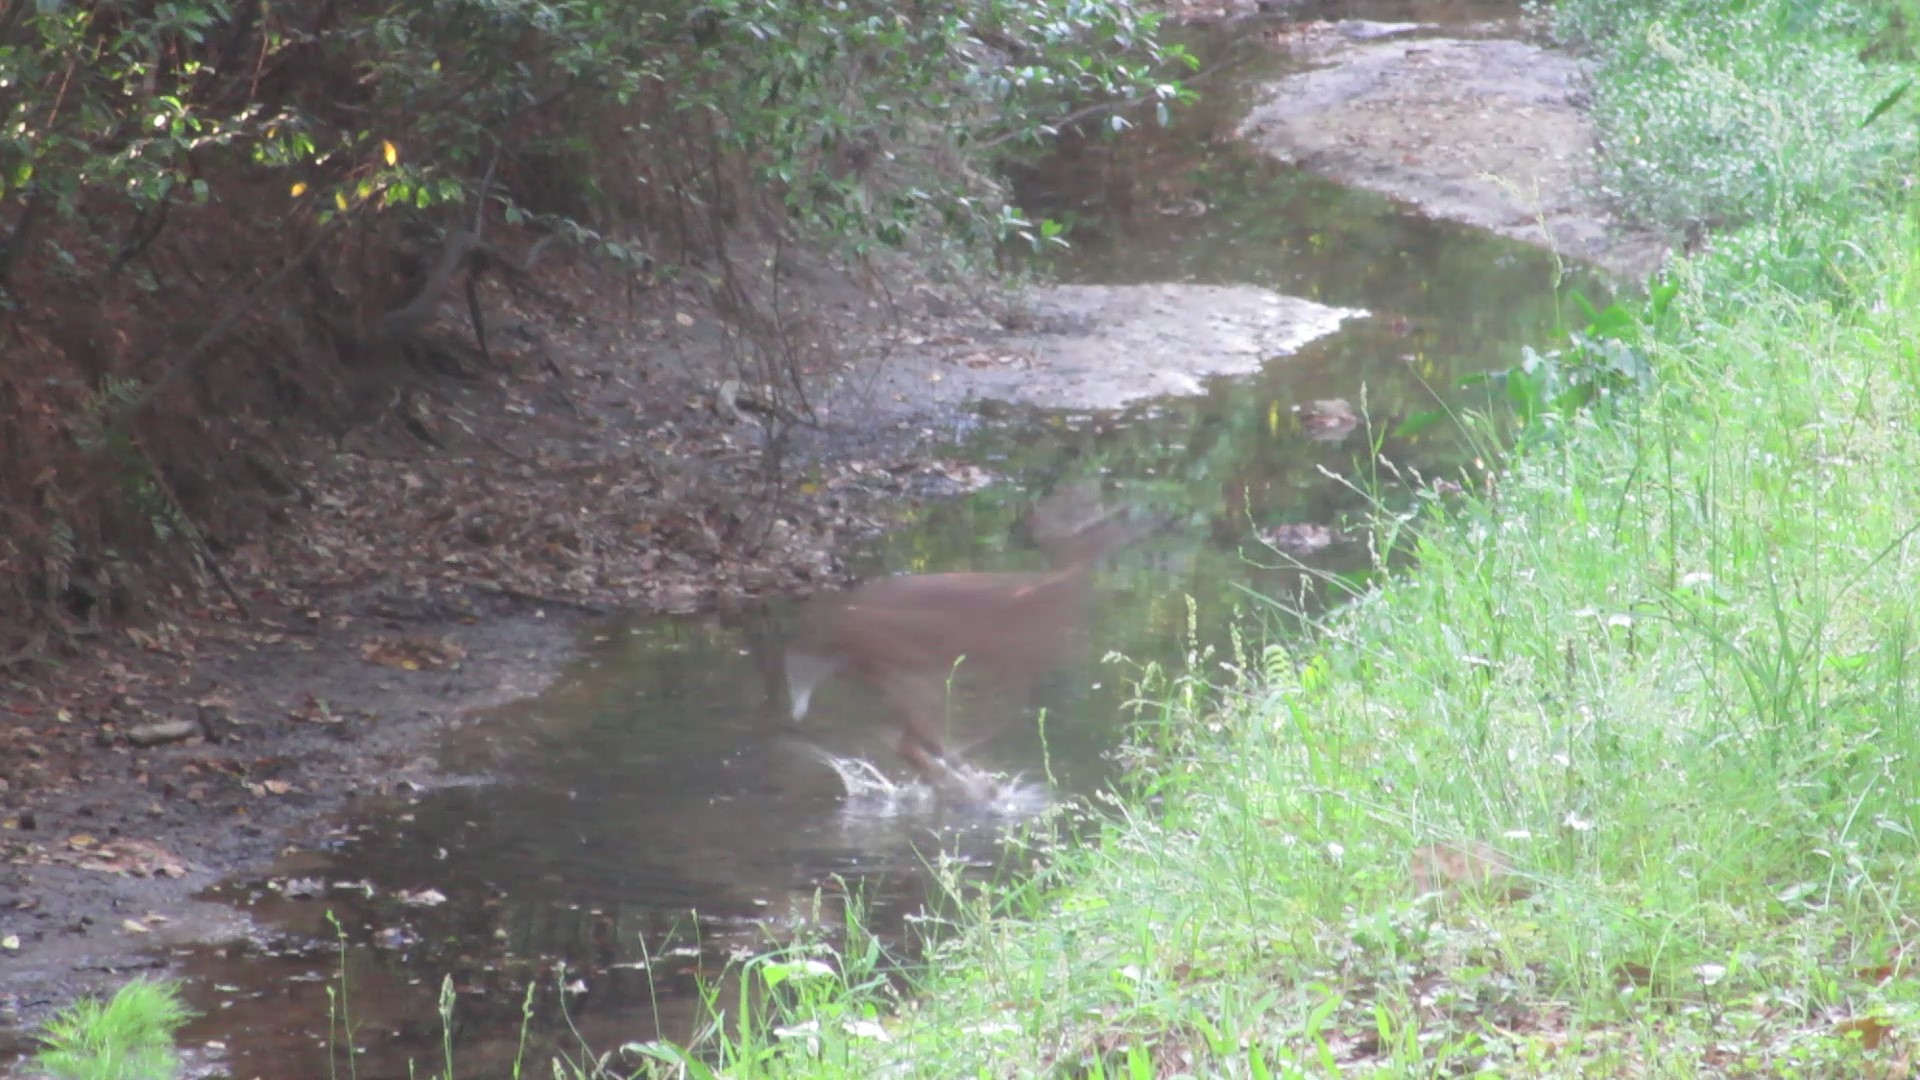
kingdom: Animalia
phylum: Chordata
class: Mammalia
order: Artiodactyla
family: Cervidae
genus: Odocoileus
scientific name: Odocoileus virginianus
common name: White-tailed deer
